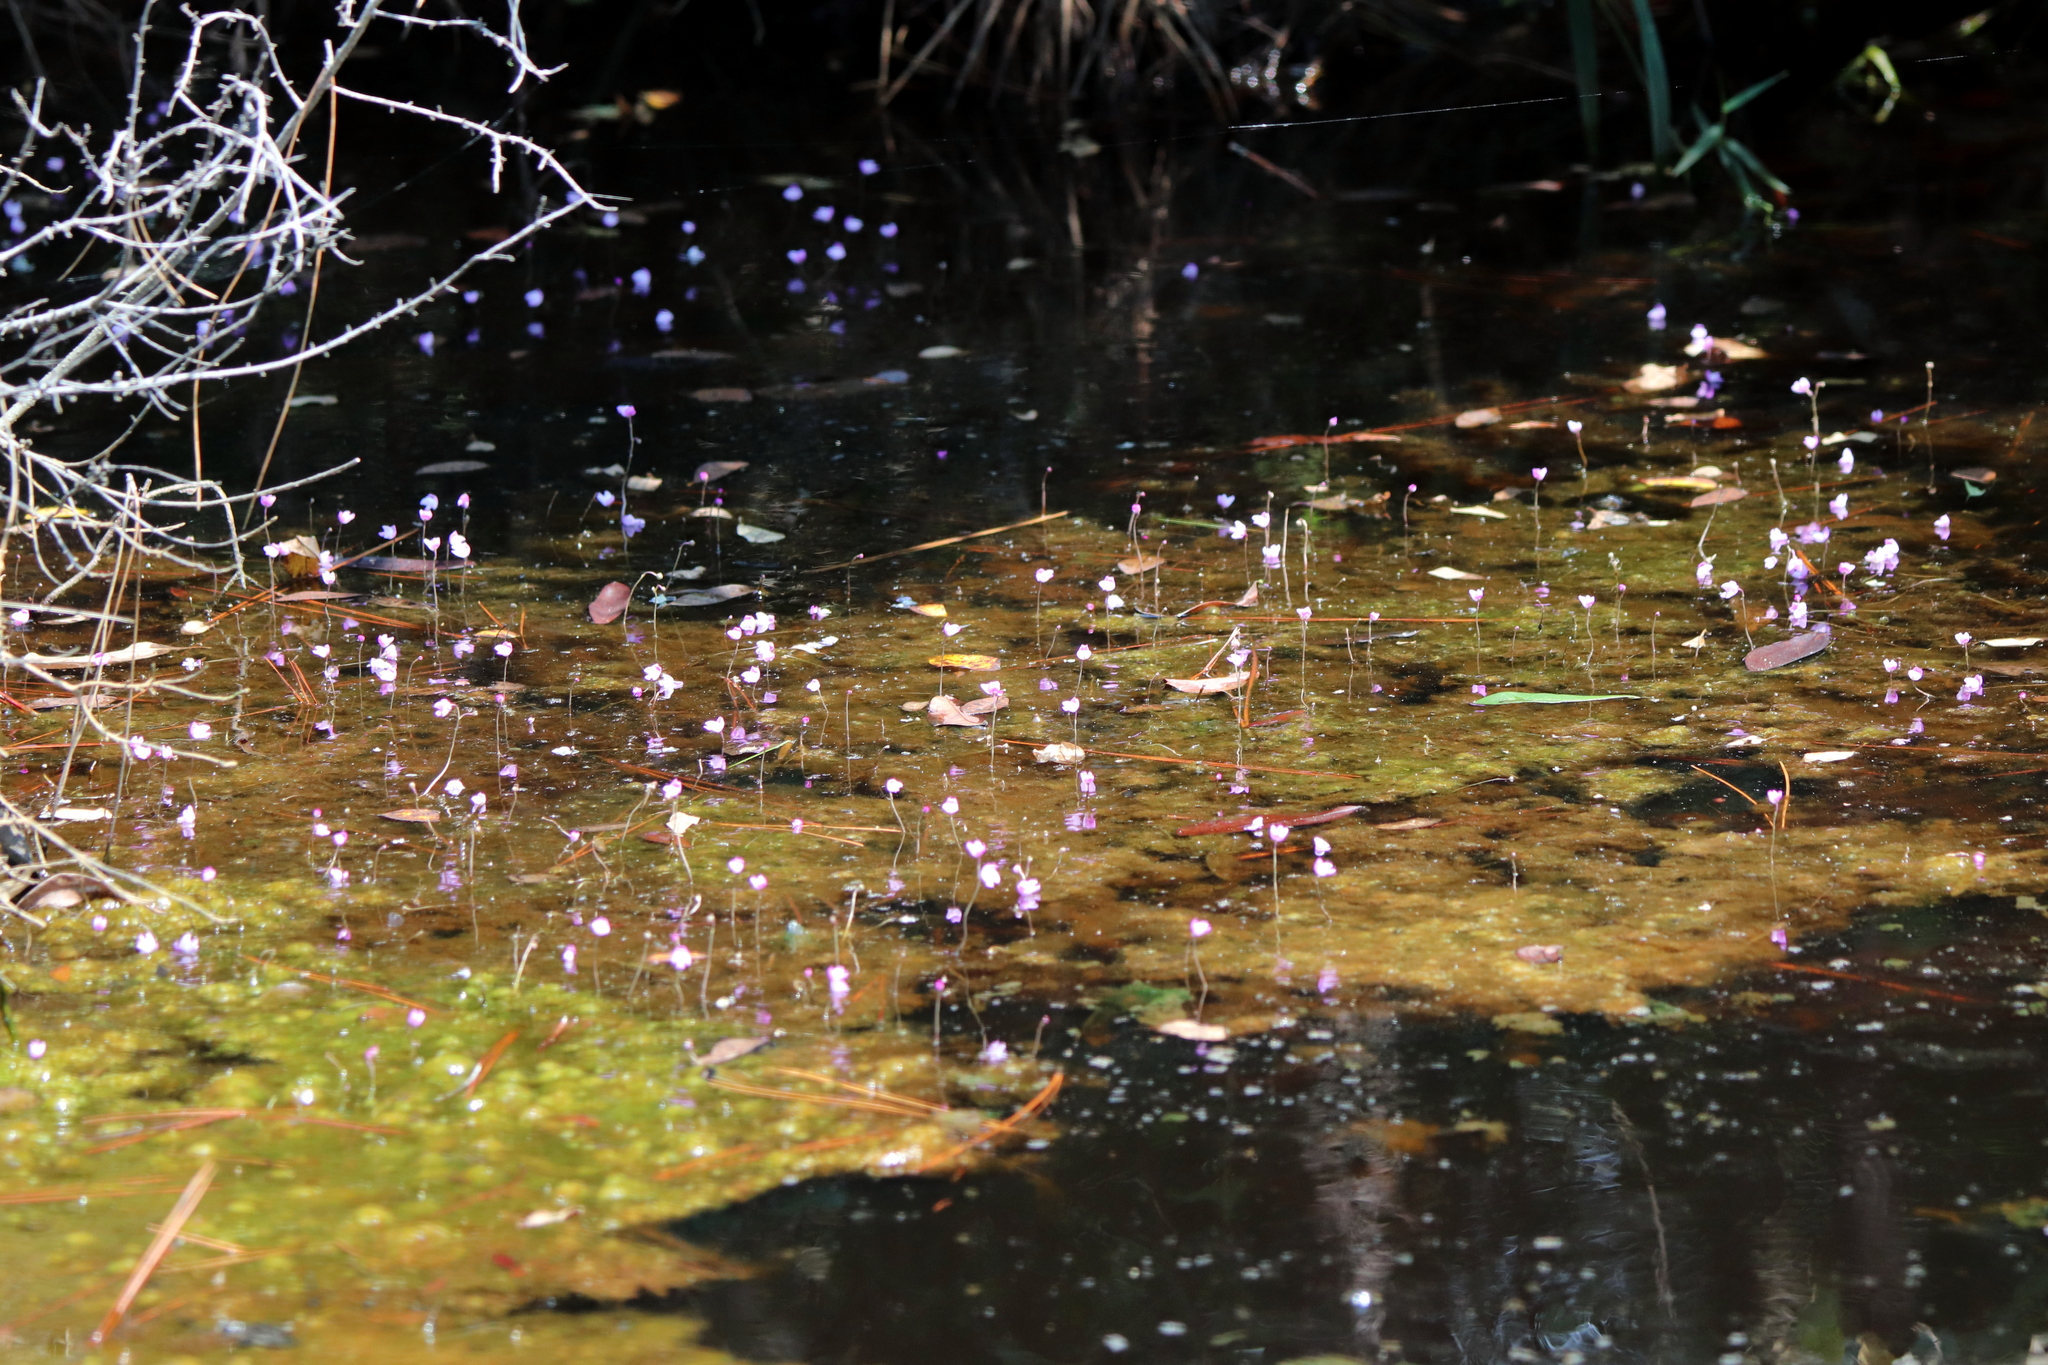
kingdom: Plantae
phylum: Tracheophyta
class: Magnoliopsida
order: Lamiales
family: Lentibulariaceae
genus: Utricularia
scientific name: Utricularia purpurea
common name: Eastern purple bladderwort
